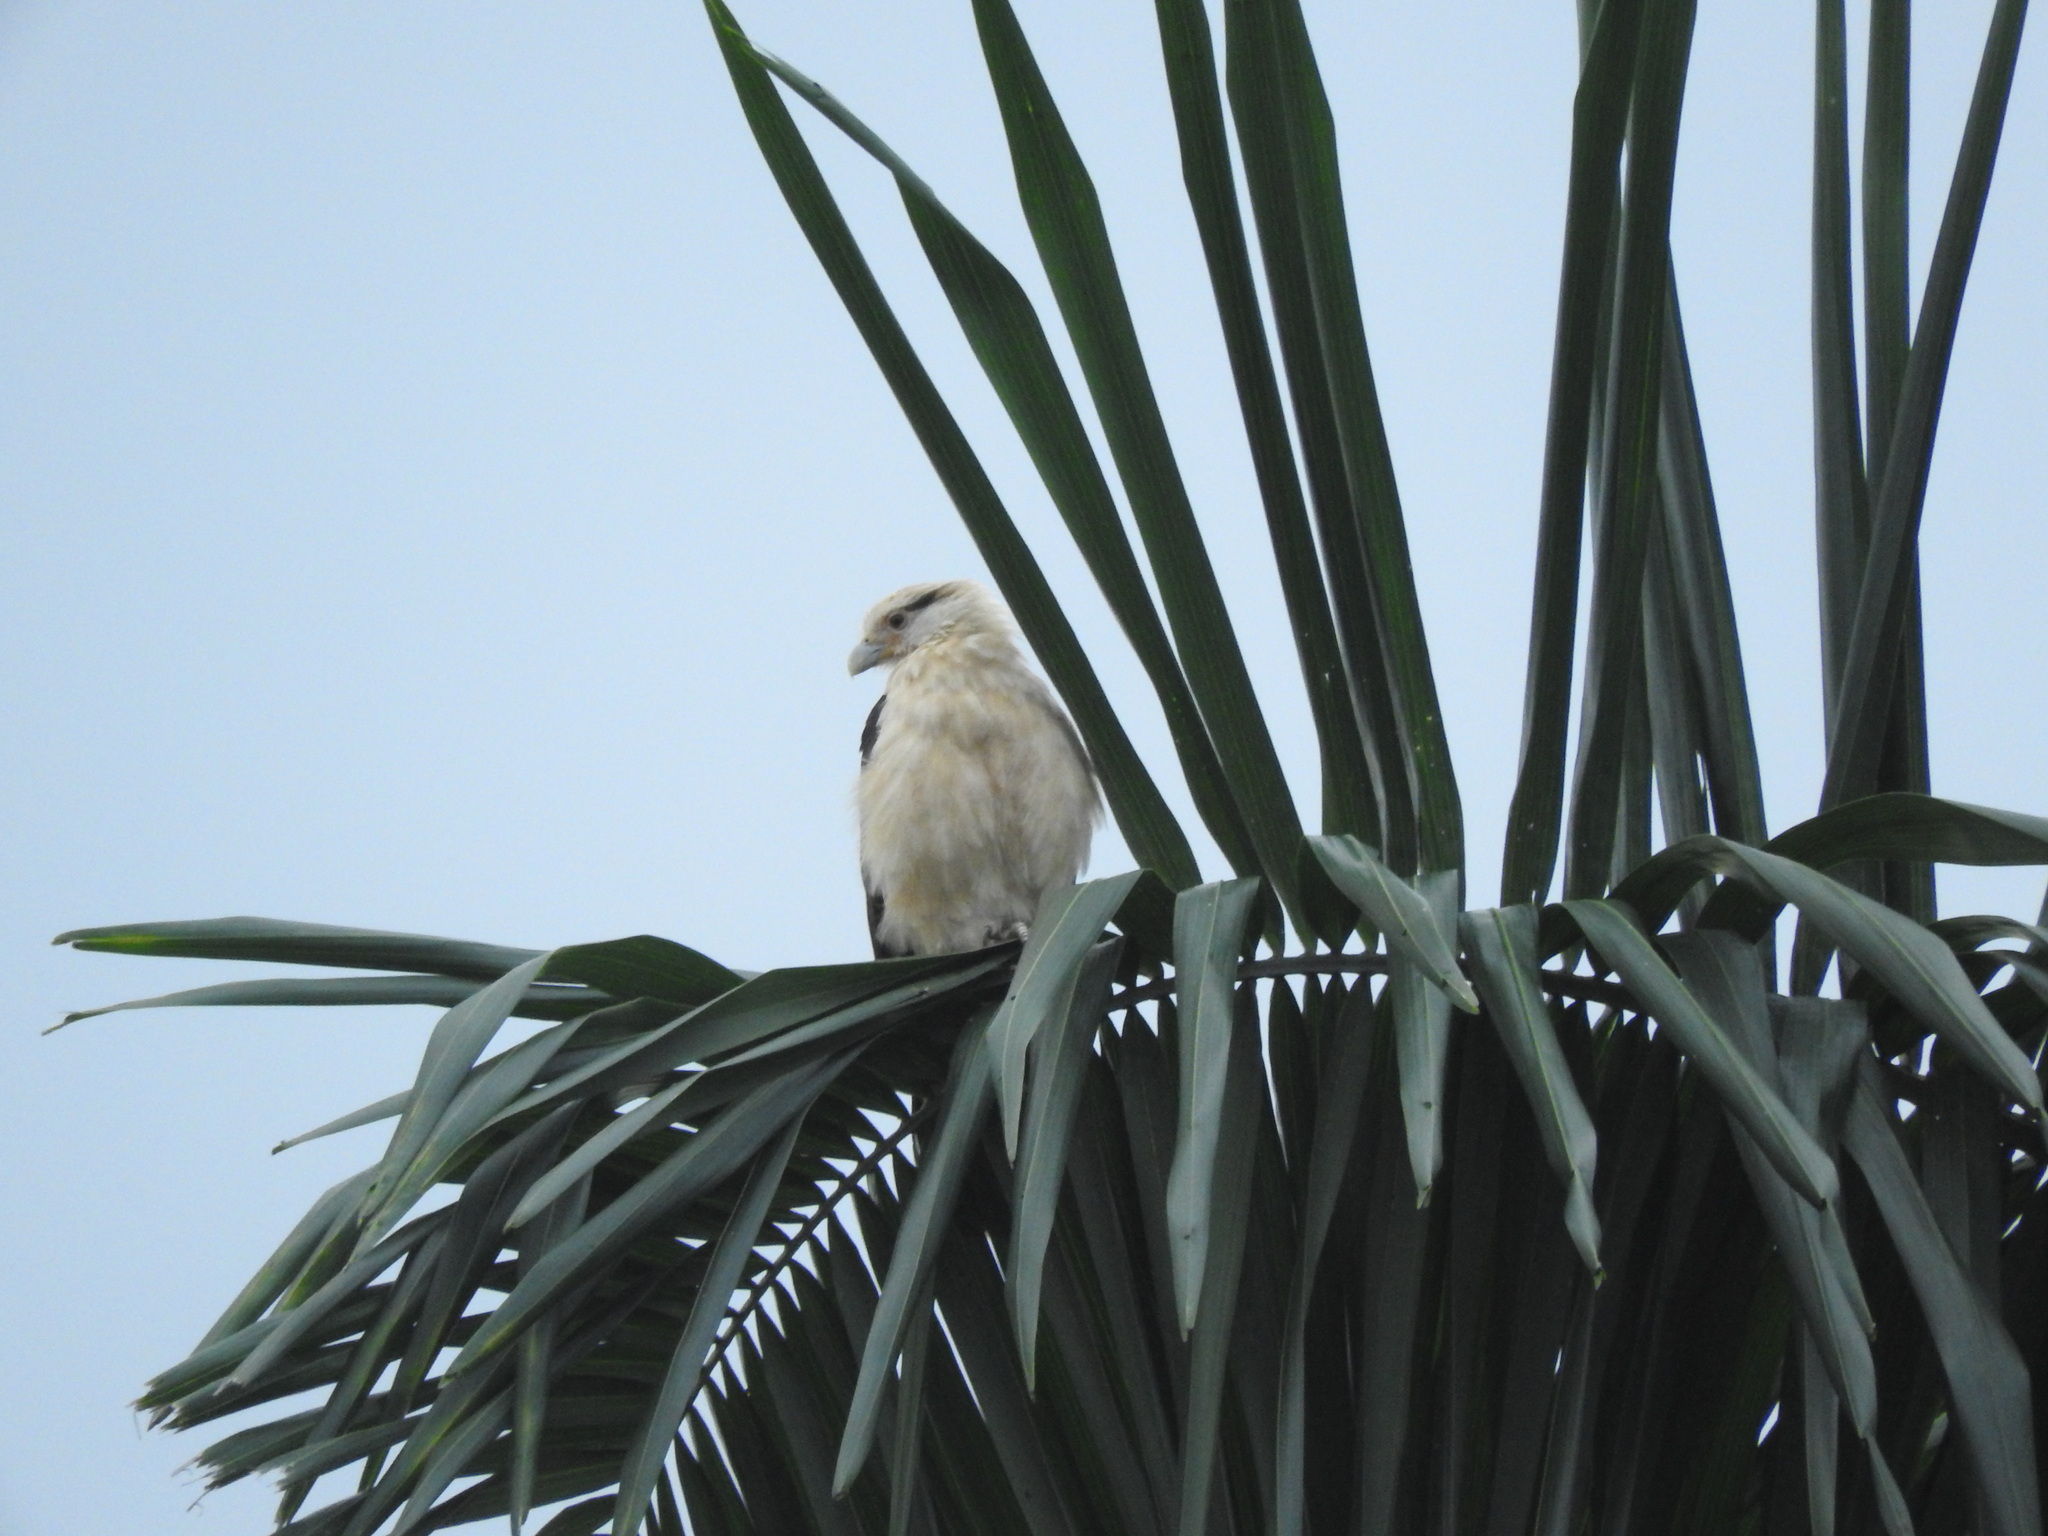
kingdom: Animalia
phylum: Chordata
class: Aves
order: Falconiformes
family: Falconidae
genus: Daptrius
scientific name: Daptrius
